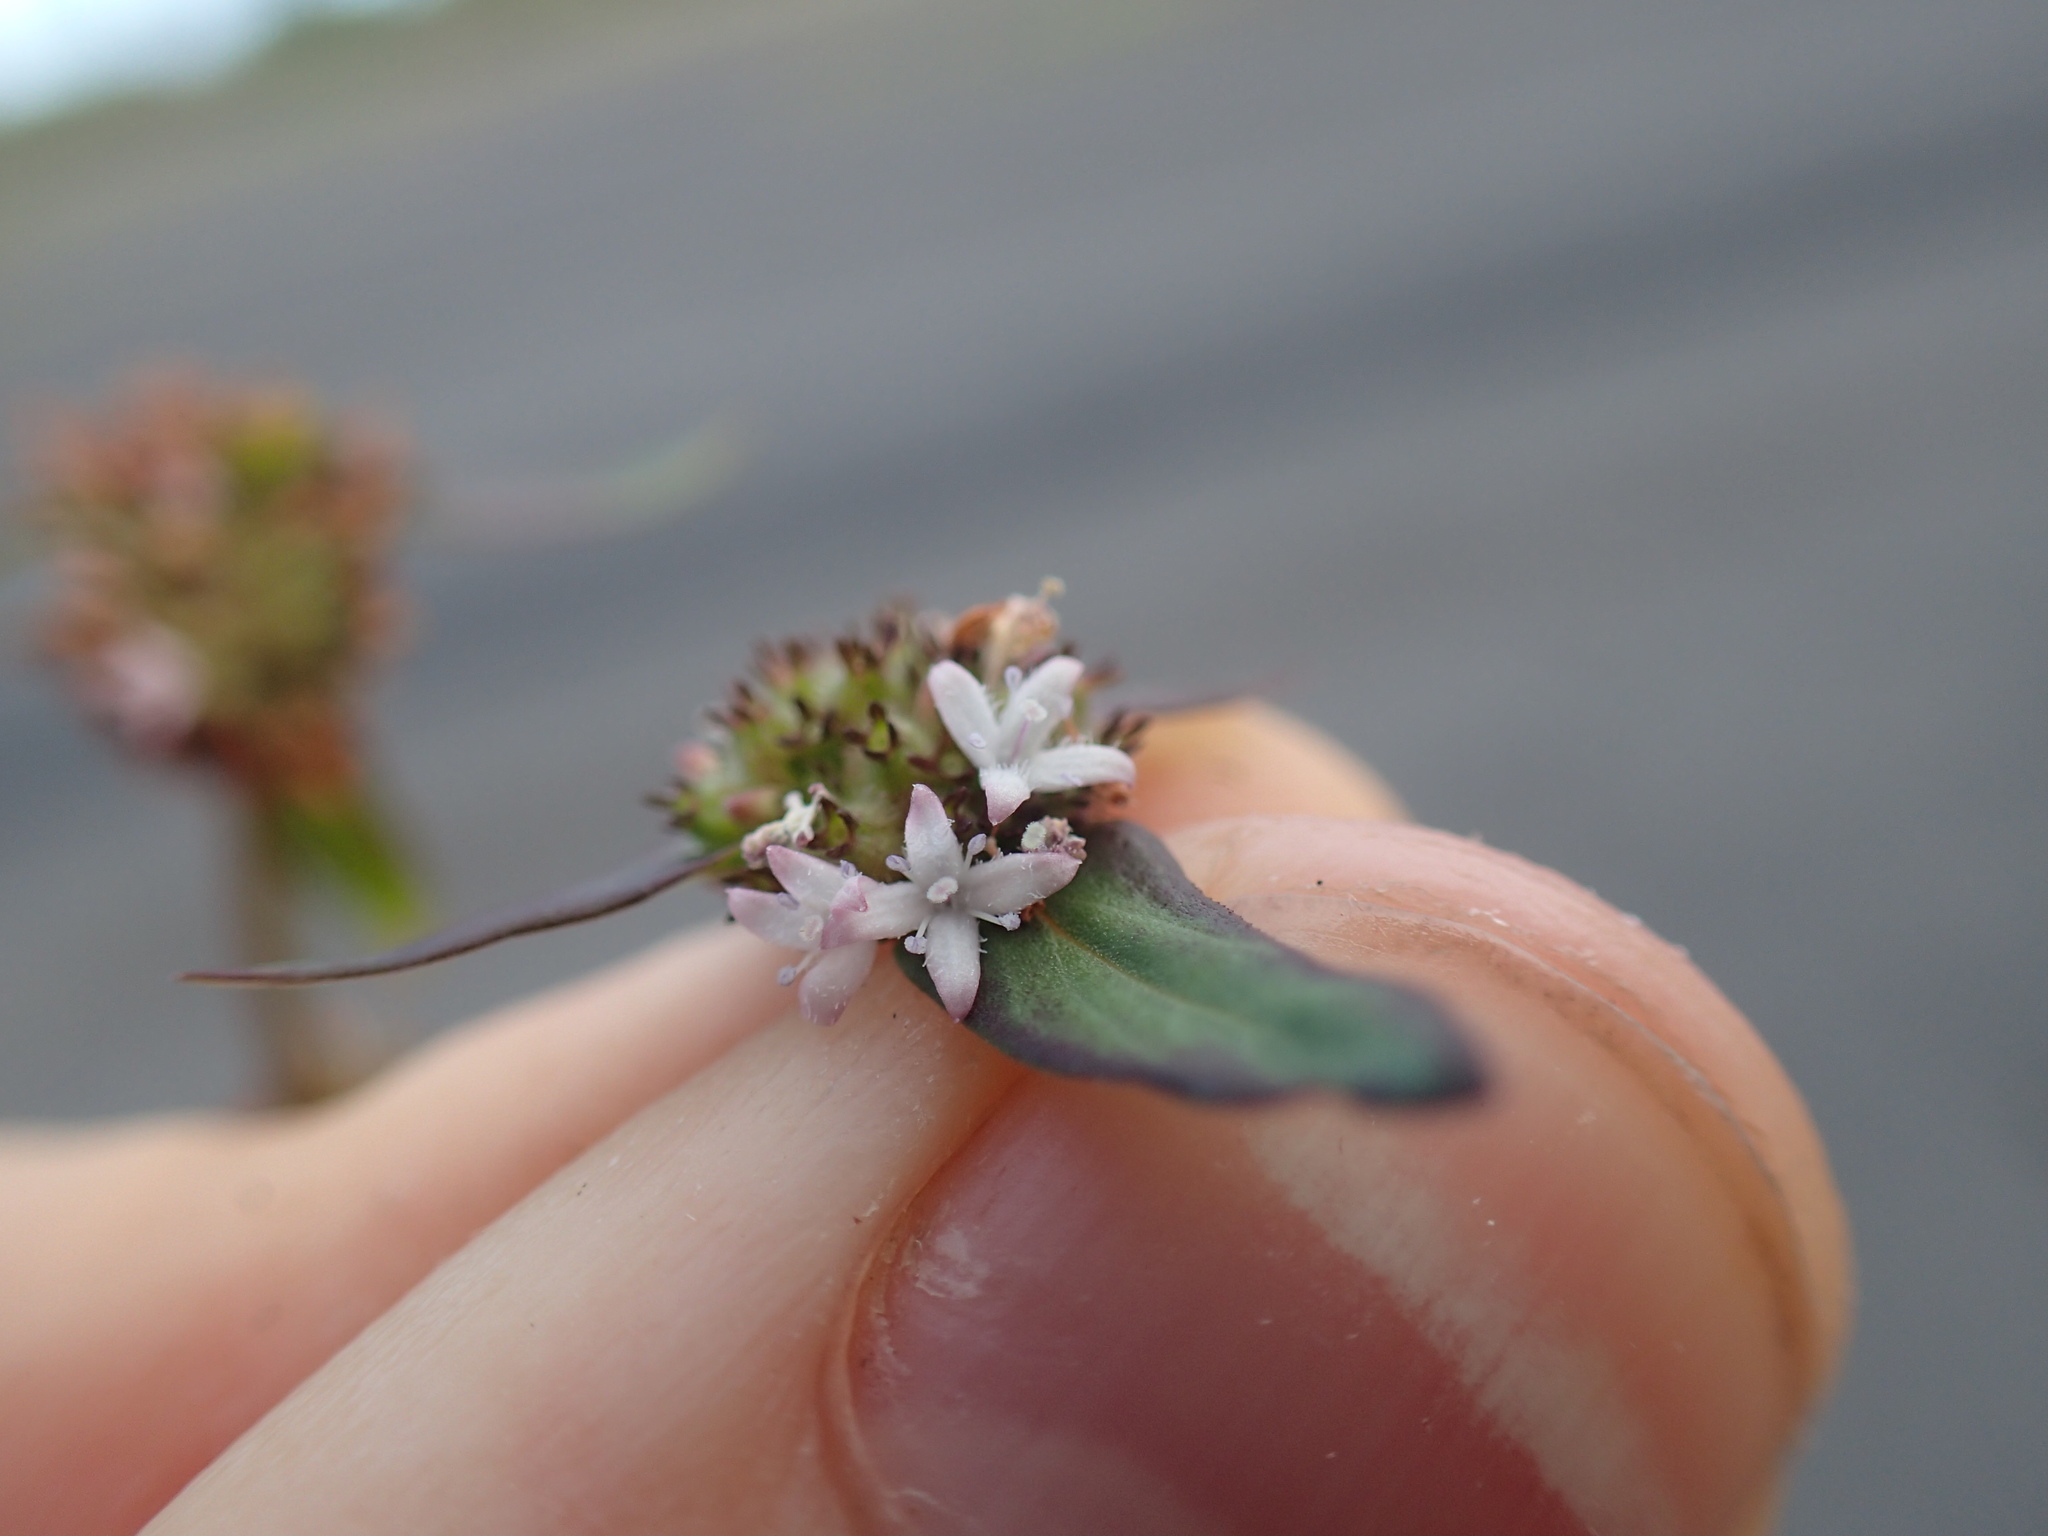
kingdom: Plantae
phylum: Tracheophyta
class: Magnoliopsida
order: Gentianales
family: Rubiaceae
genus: Spermacoce
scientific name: Spermacoce remota
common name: Woodland false buttonweed
